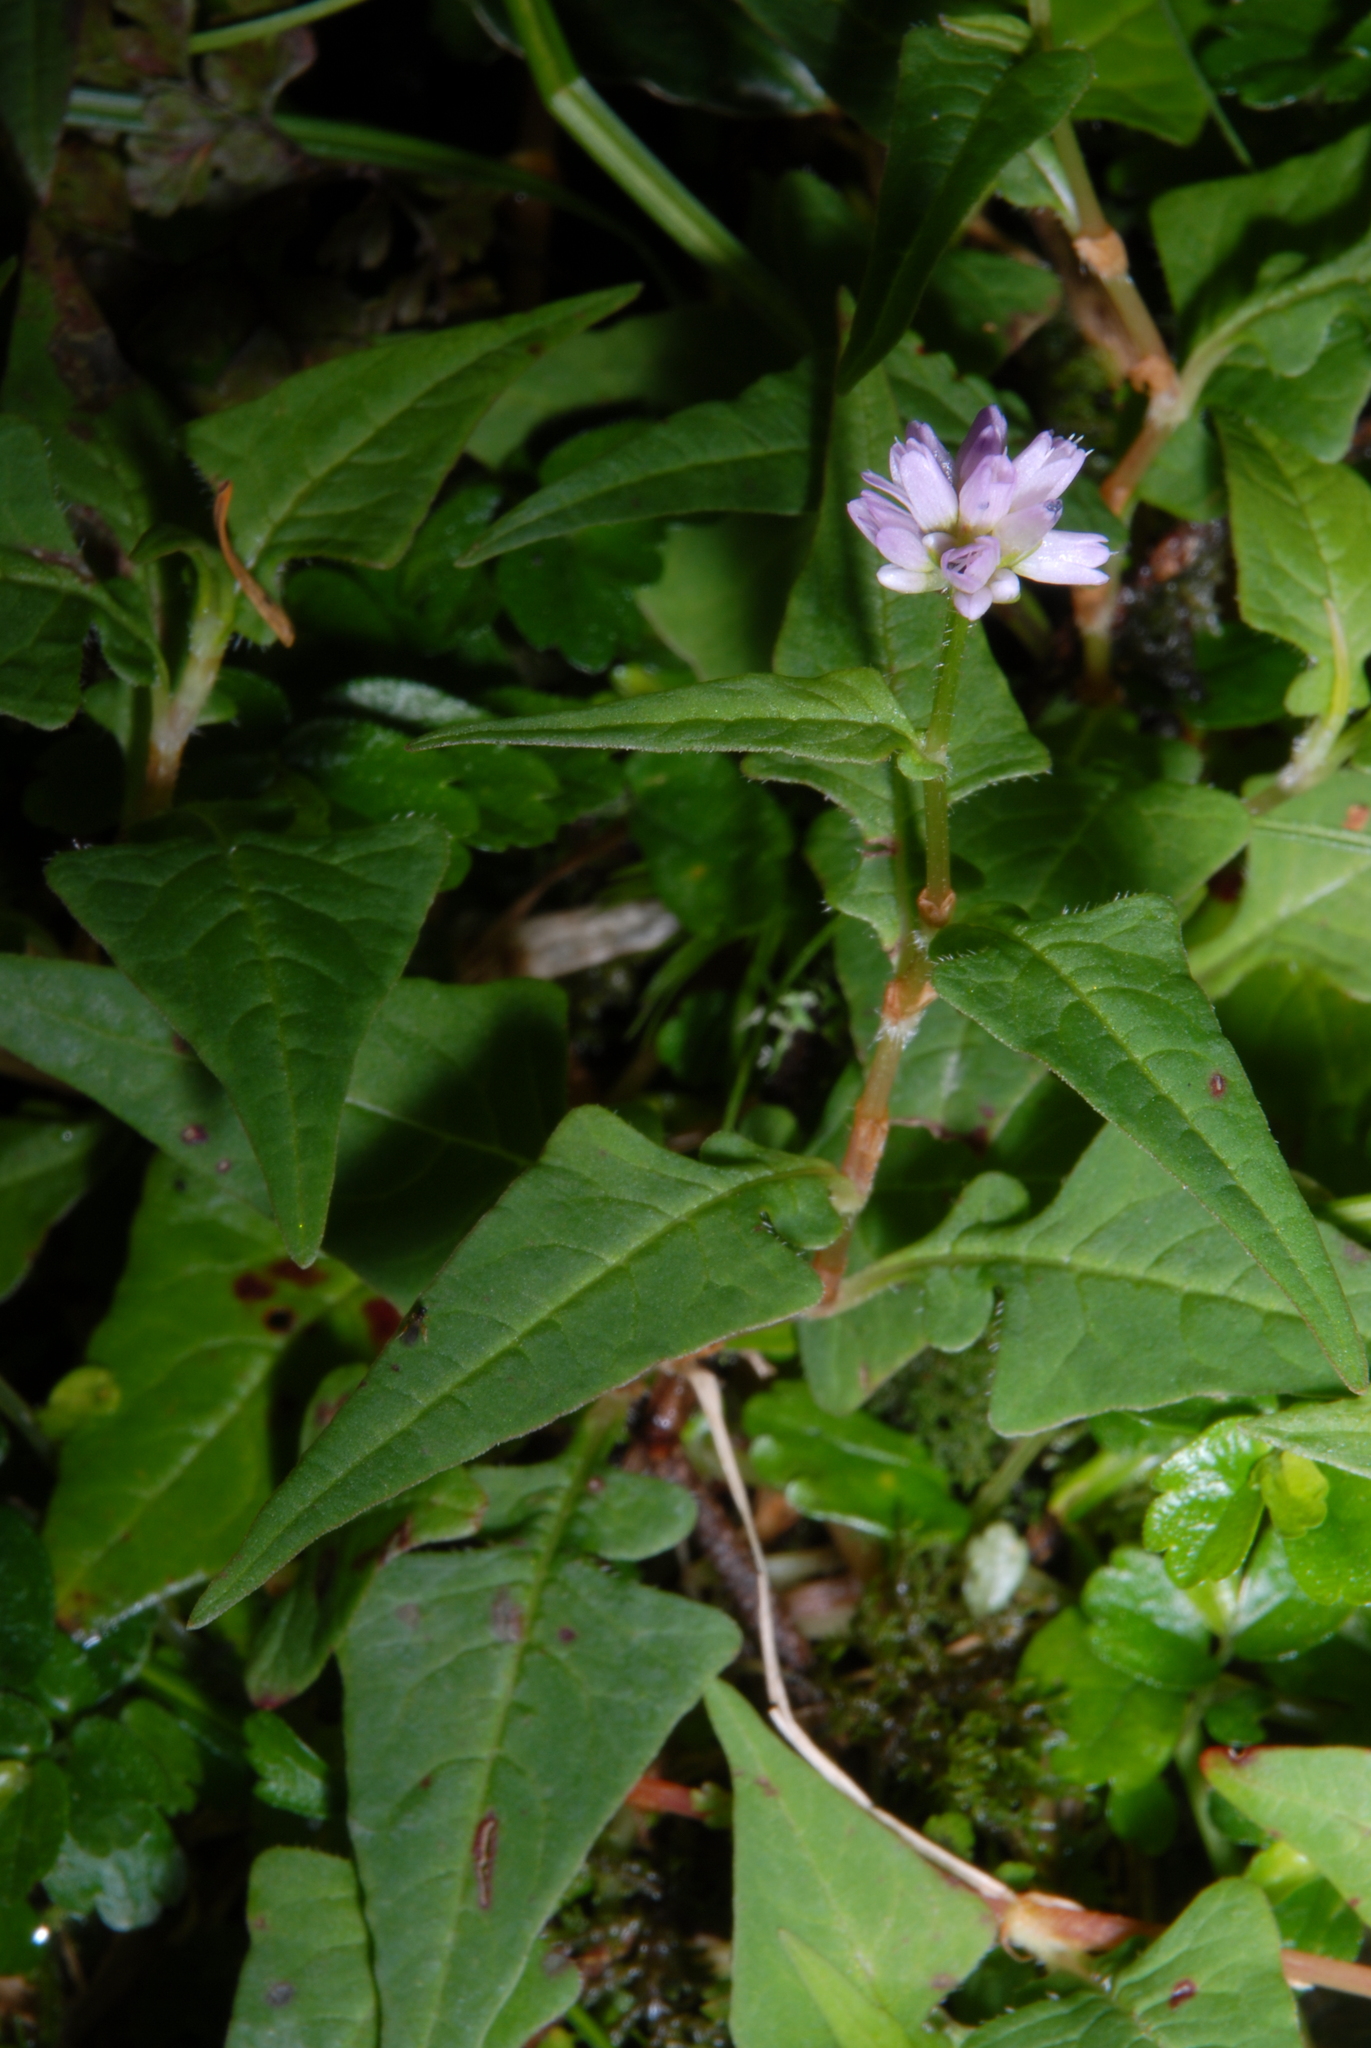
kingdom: Plantae
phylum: Tracheophyta
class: Magnoliopsida
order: Caryophyllales
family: Polygonaceae
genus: Persicaria
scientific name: Persicaria runcinata
